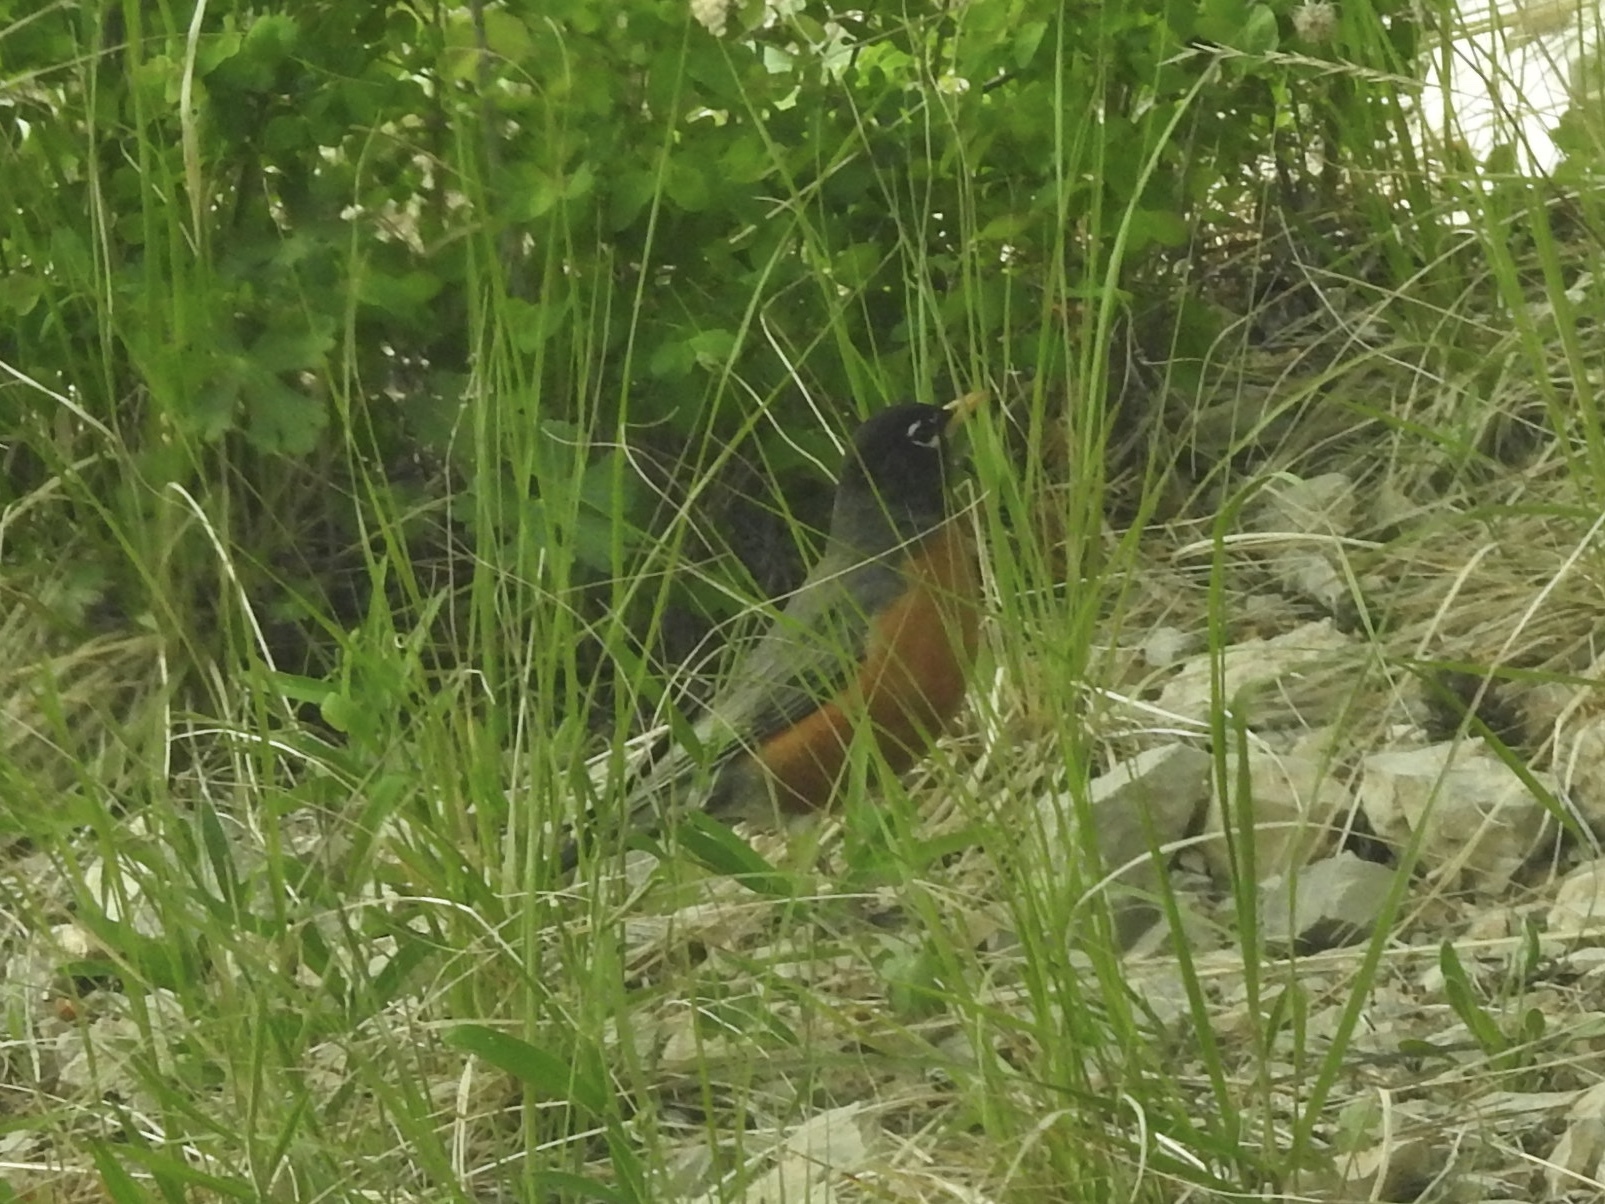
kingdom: Animalia
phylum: Chordata
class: Aves
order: Passeriformes
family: Turdidae
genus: Turdus
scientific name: Turdus migratorius
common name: American robin
